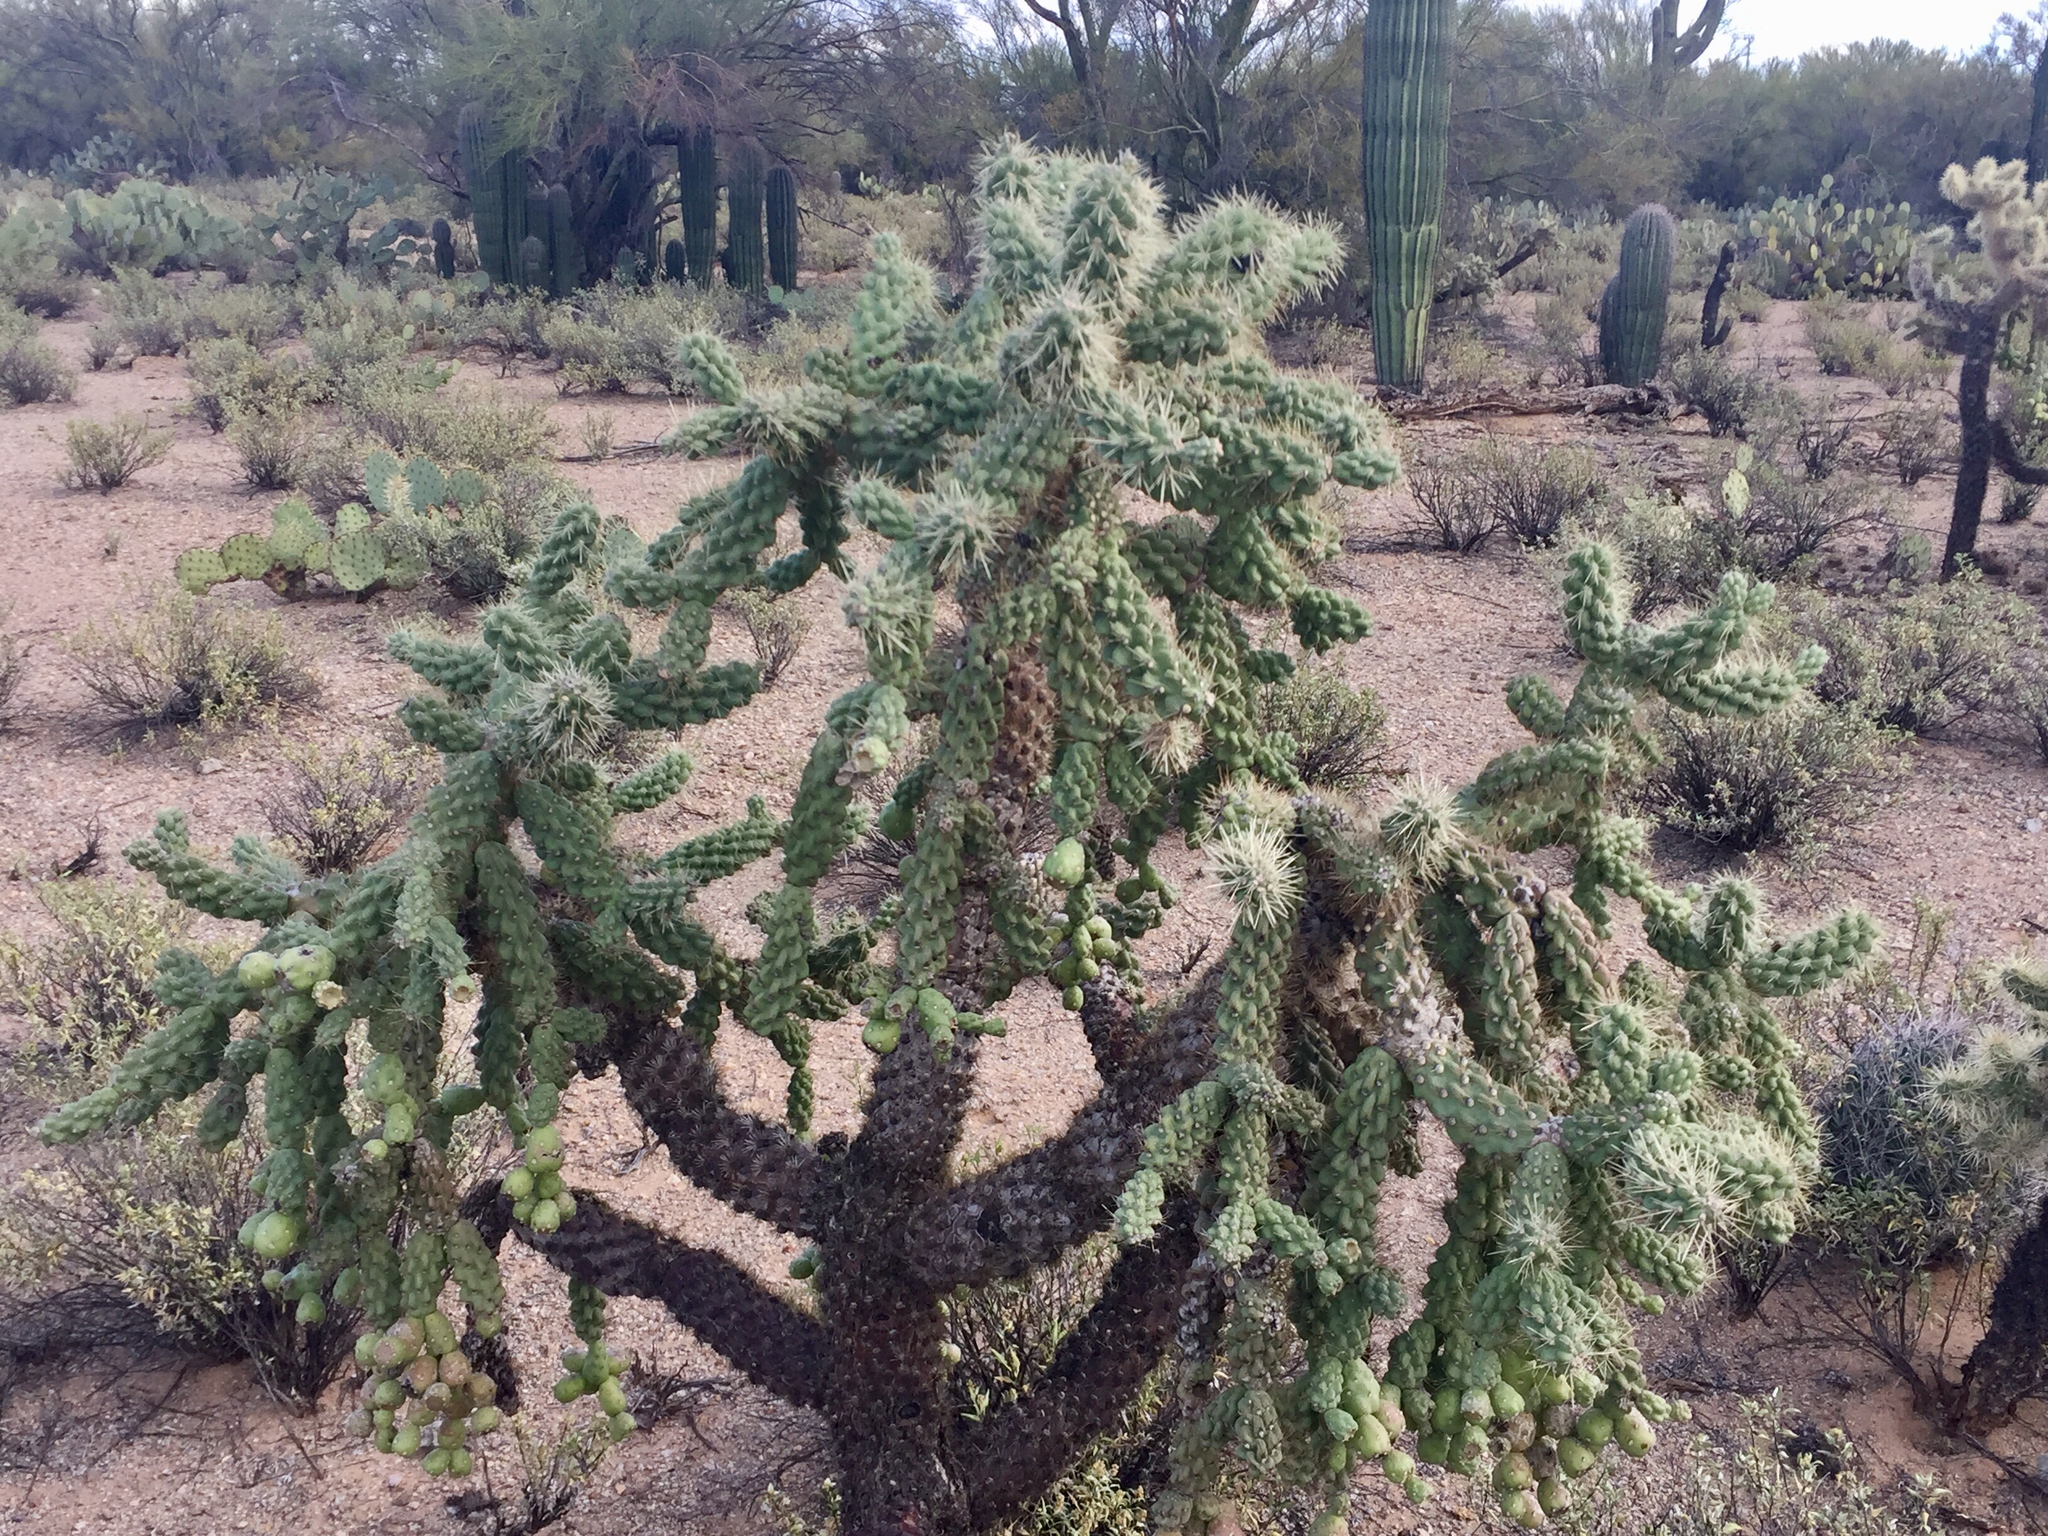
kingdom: Plantae
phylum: Tracheophyta
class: Magnoliopsida
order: Caryophyllales
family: Cactaceae
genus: Cylindropuntia
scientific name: Cylindropuntia fulgida
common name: Jumping cholla
